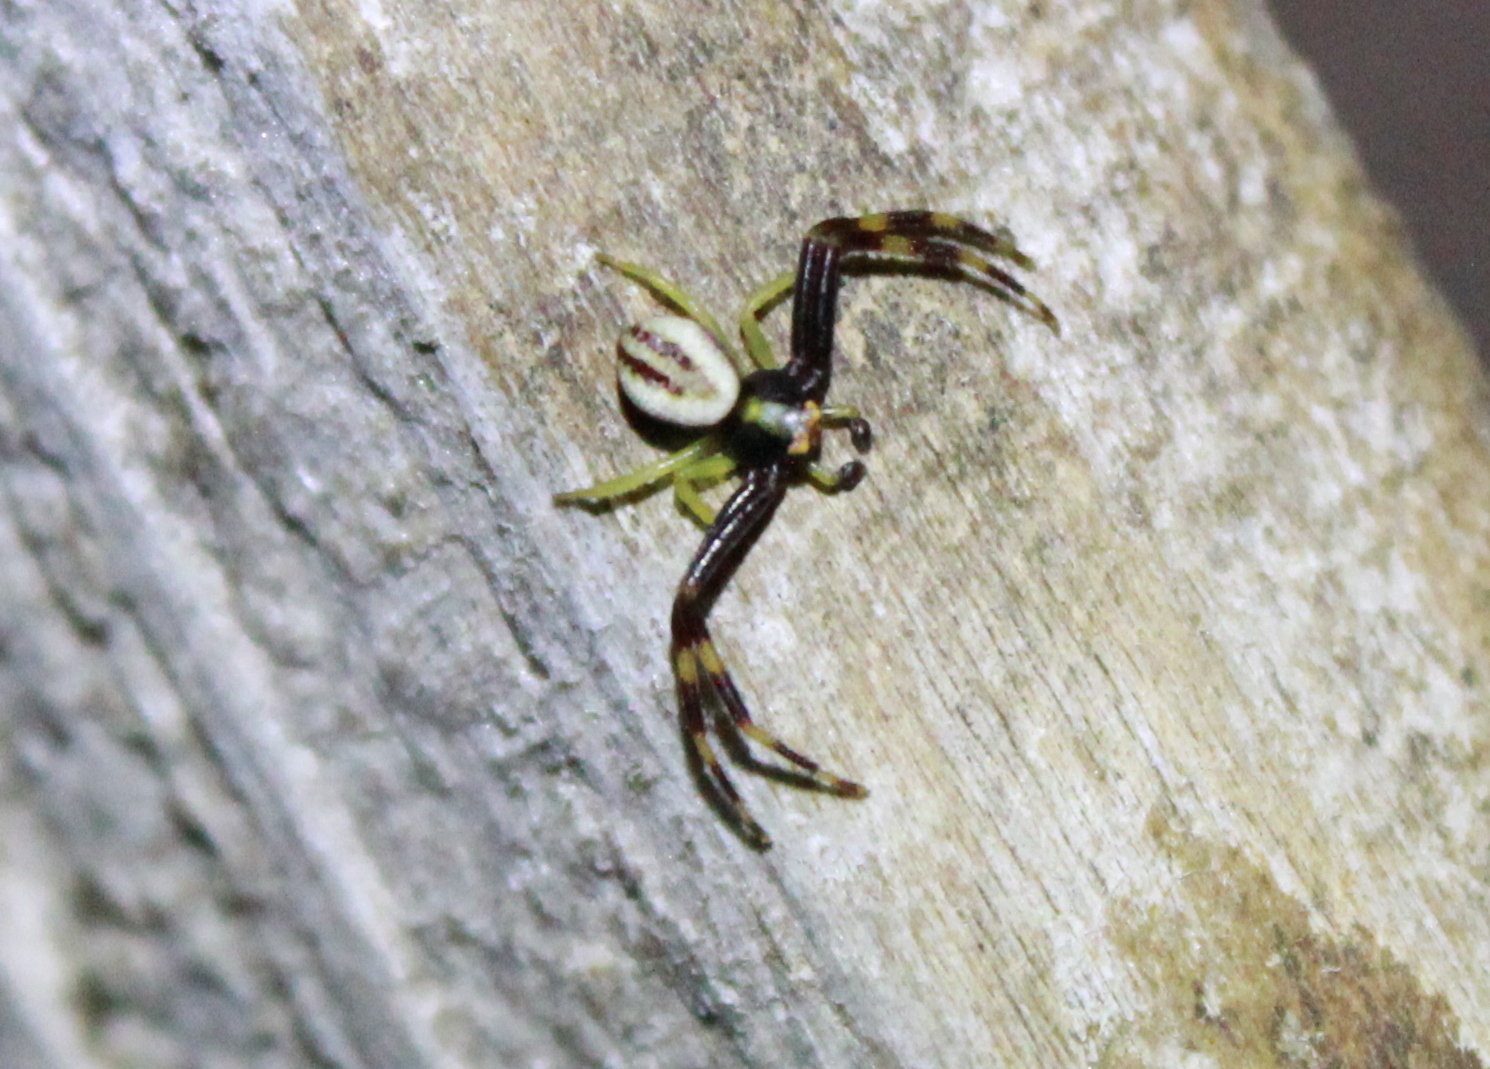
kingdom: Animalia
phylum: Arthropoda
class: Arachnida
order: Araneae
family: Thomisidae
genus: Misumena
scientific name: Misumena vatia
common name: Goldenrod crab spider
